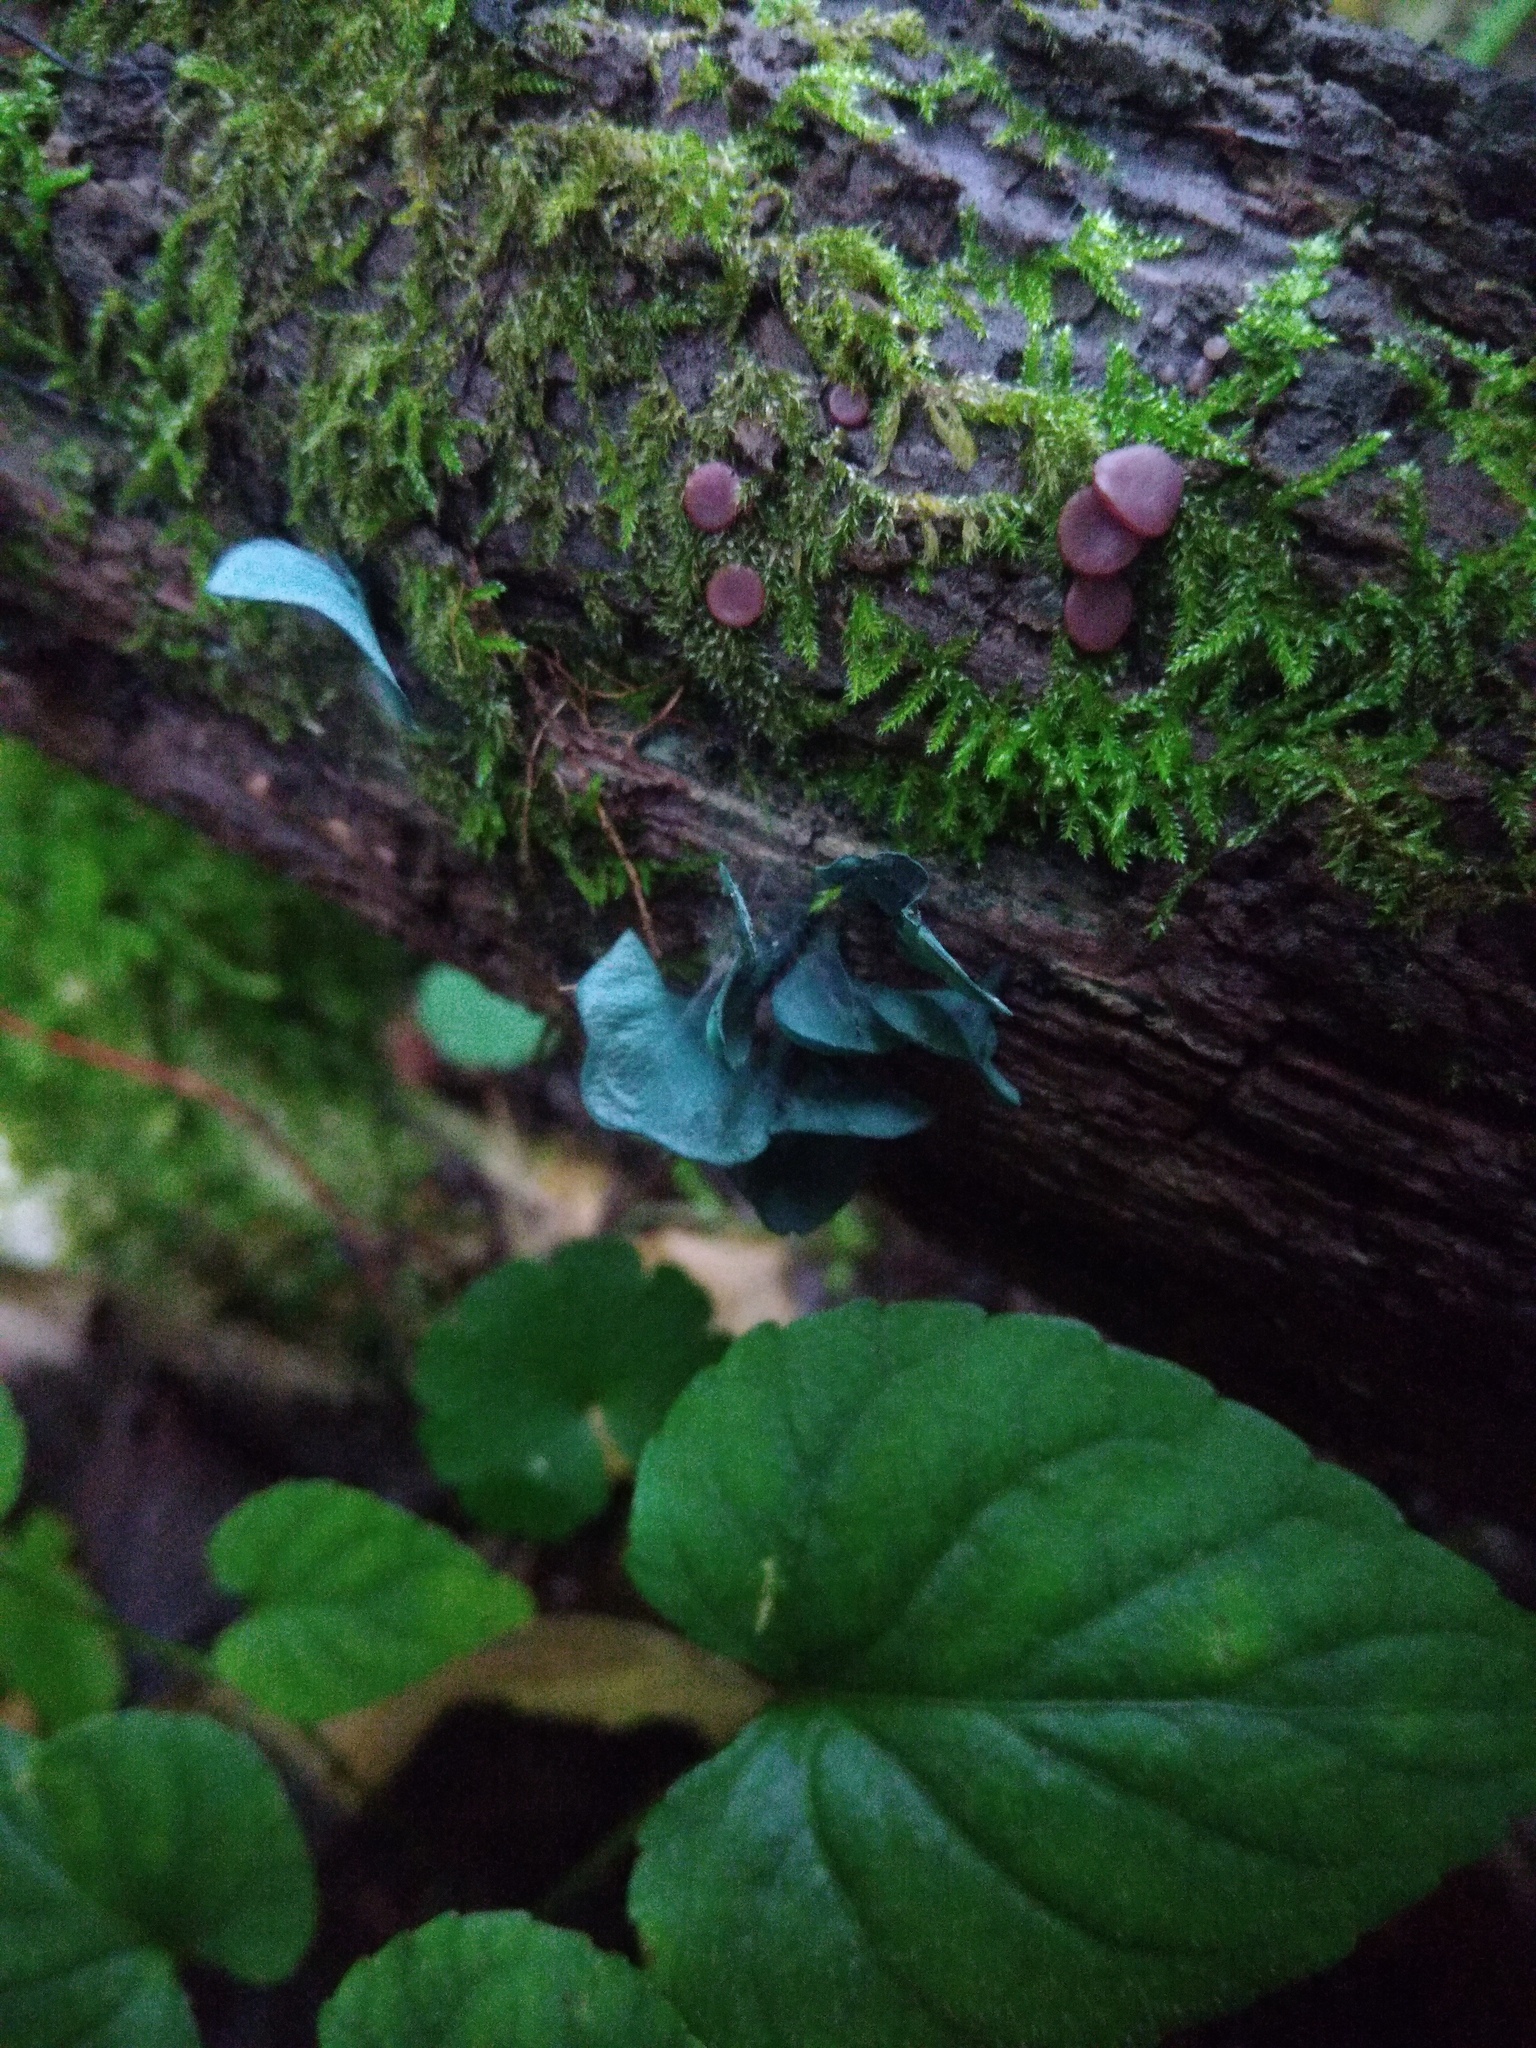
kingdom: Fungi
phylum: Ascomycota
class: Leotiomycetes
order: Helotiales
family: Chlorociboriaceae
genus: Chlorociboria
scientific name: Chlorociboria aeruginascens
